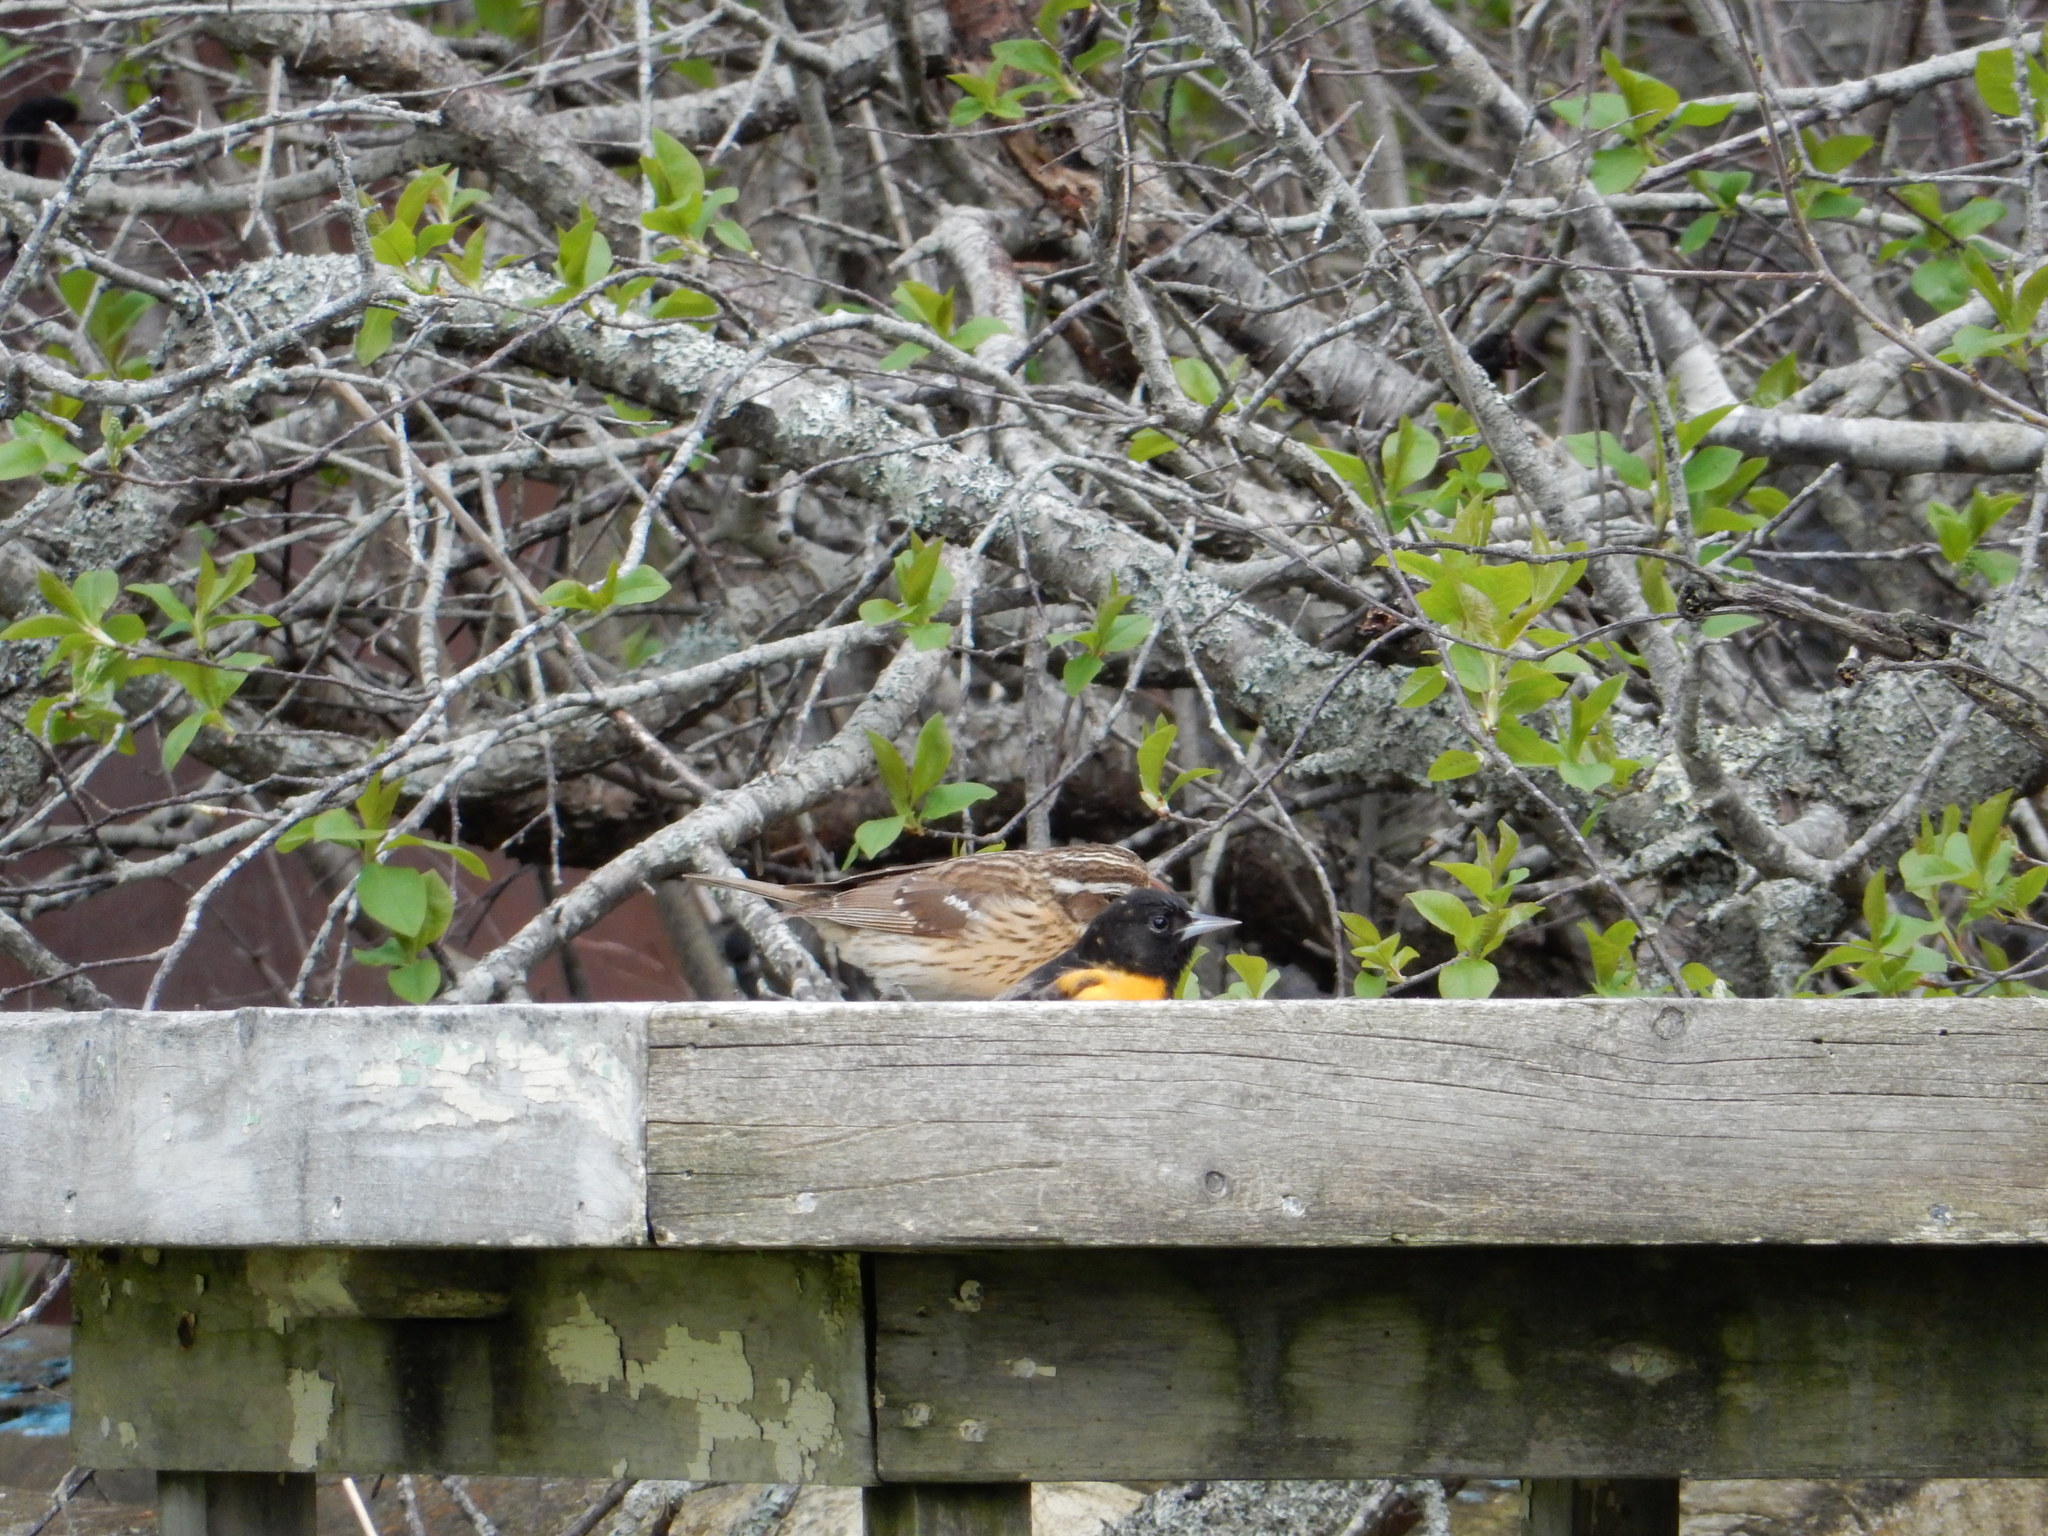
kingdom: Animalia
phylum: Chordata
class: Aves
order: Passeriformes
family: Cardinalidae
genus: Pheucticus
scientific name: Pheucticus ludovicianus
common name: Rose-breasted grosbeak
